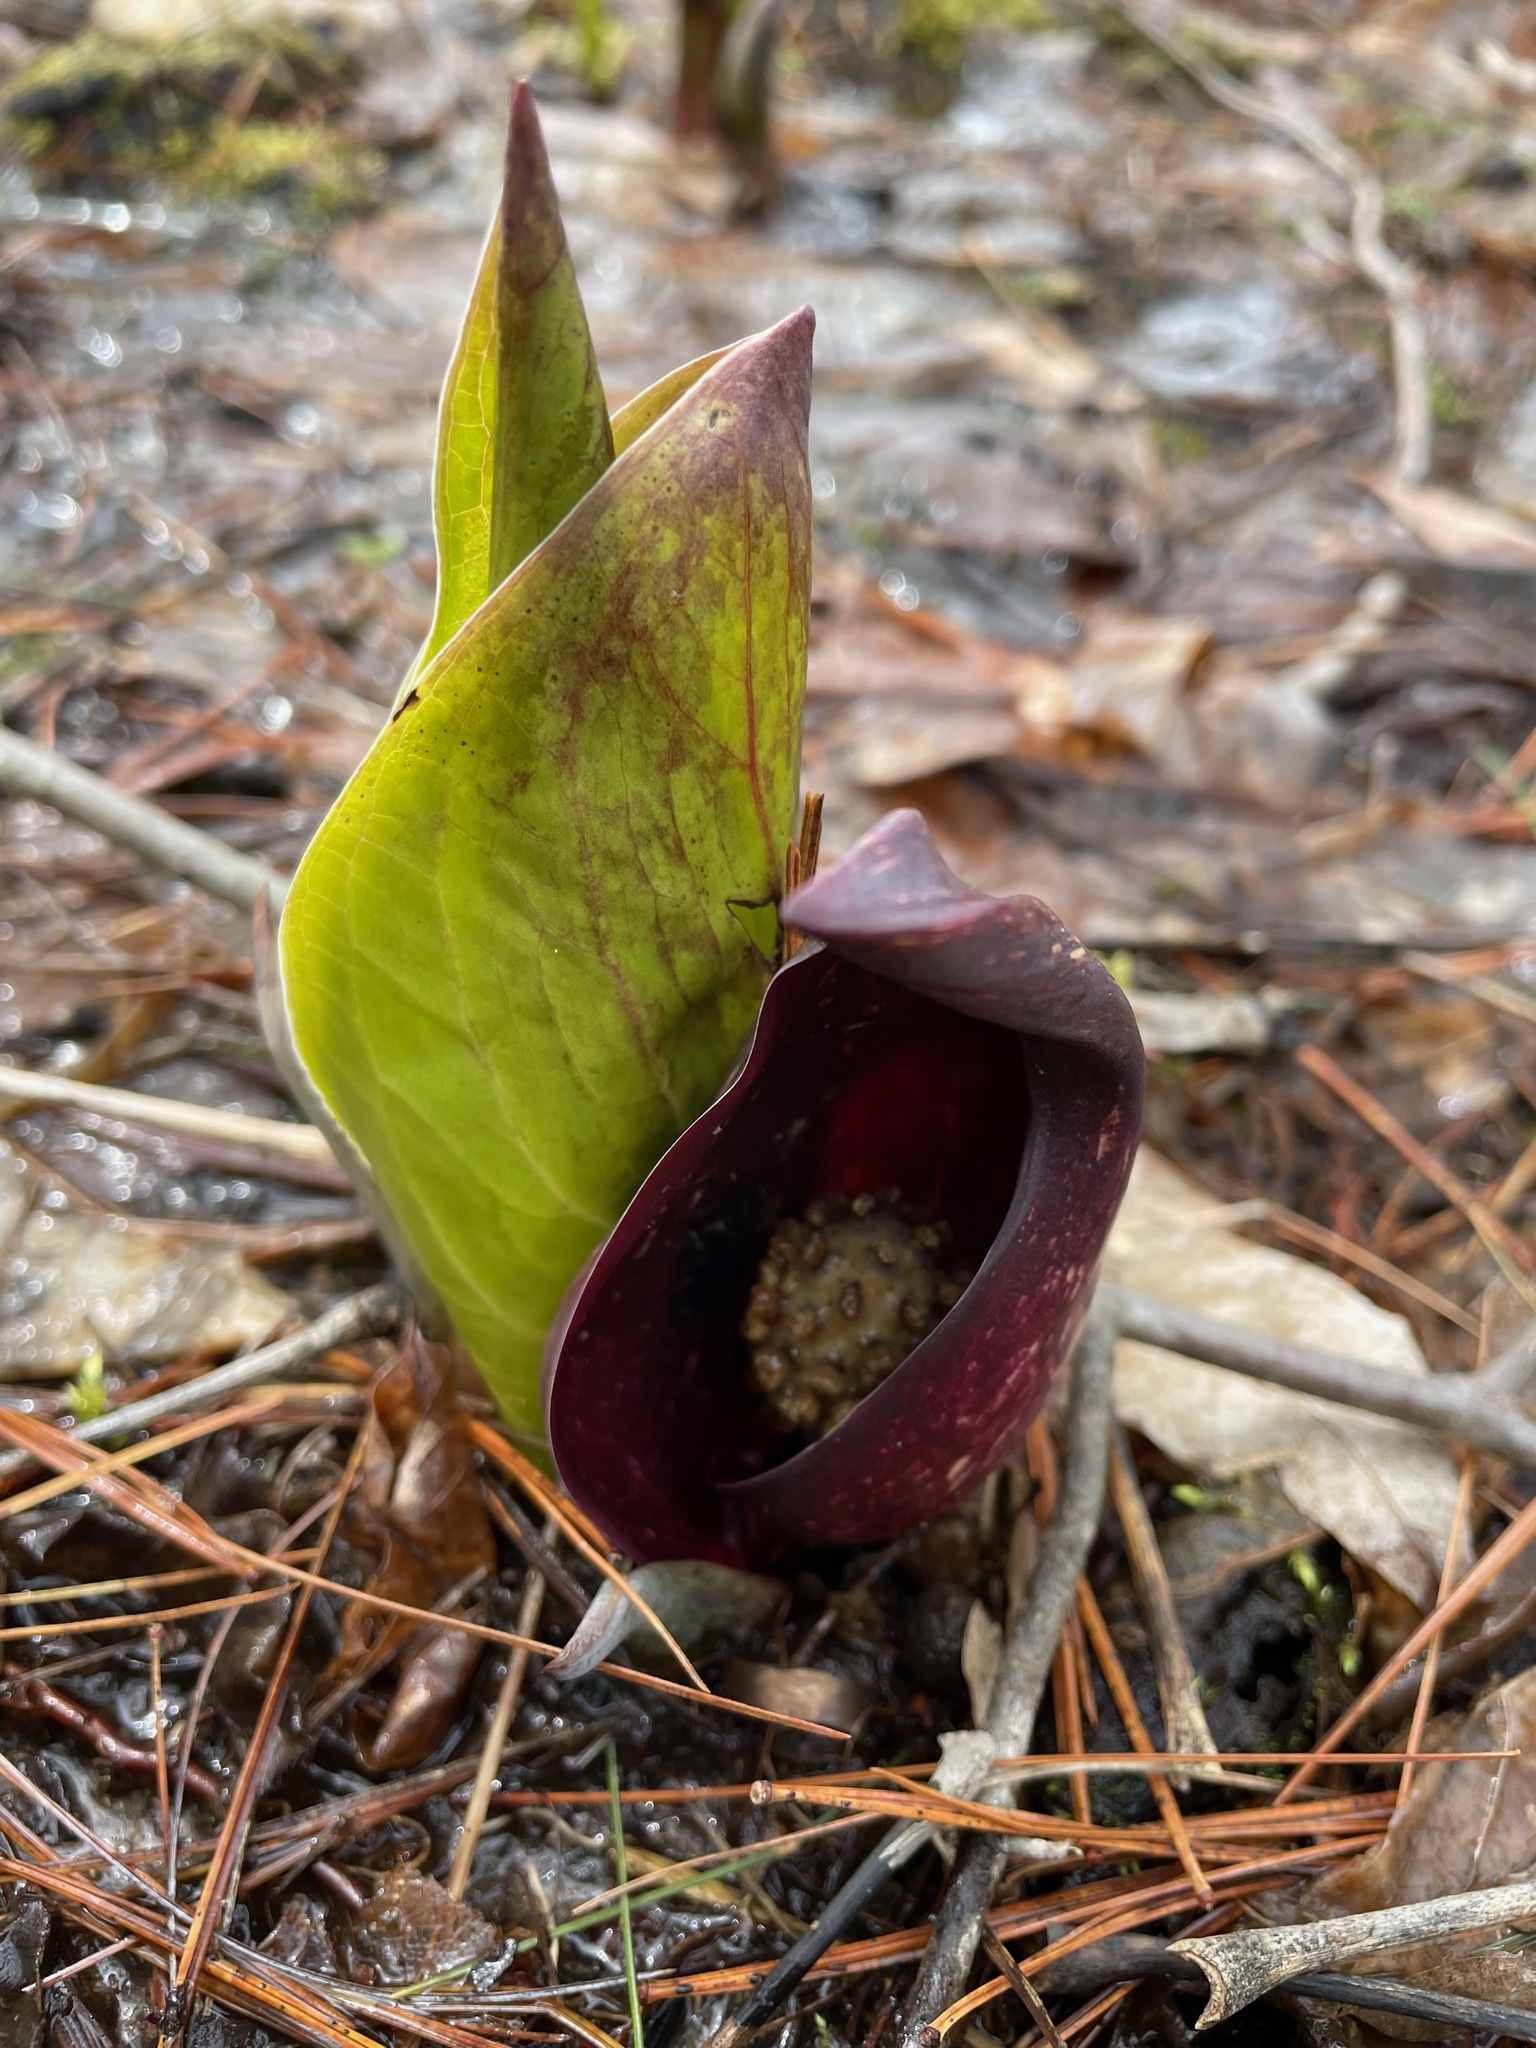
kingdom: Plantae
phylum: Tracheophyta
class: Liliopsida
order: Alismatales
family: Araceae
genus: Symplocarpus
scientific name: Symplocarpus foetidus
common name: Eastern skunk cabbage
